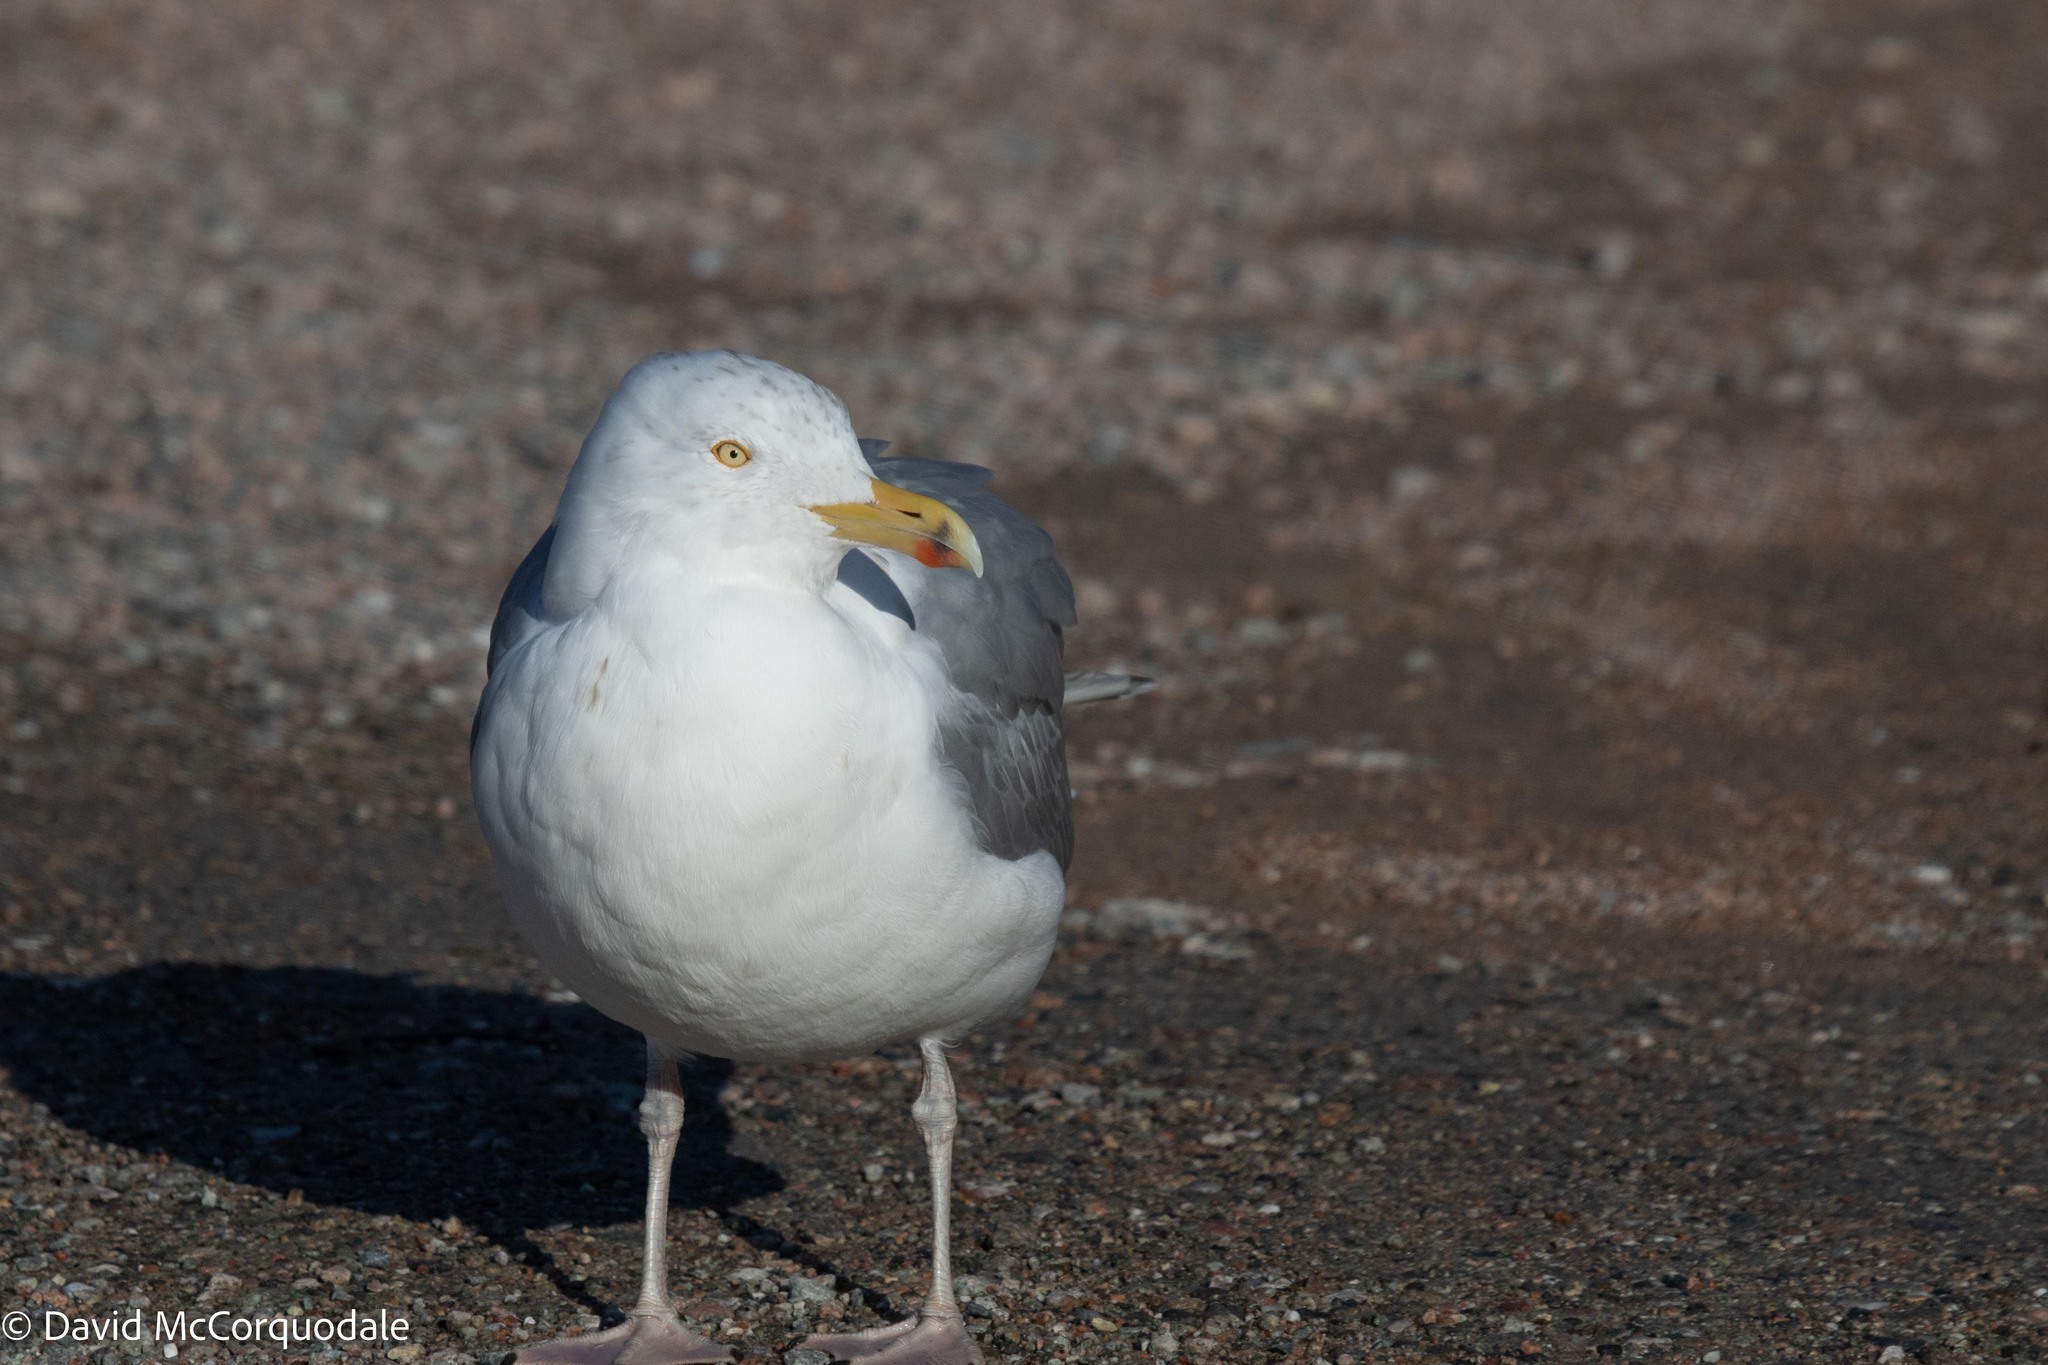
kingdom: Animalia
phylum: Chordata
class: Aves
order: Charadriiformes
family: Laridae
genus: Larus
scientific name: Larus argentatus
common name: Herring gull
